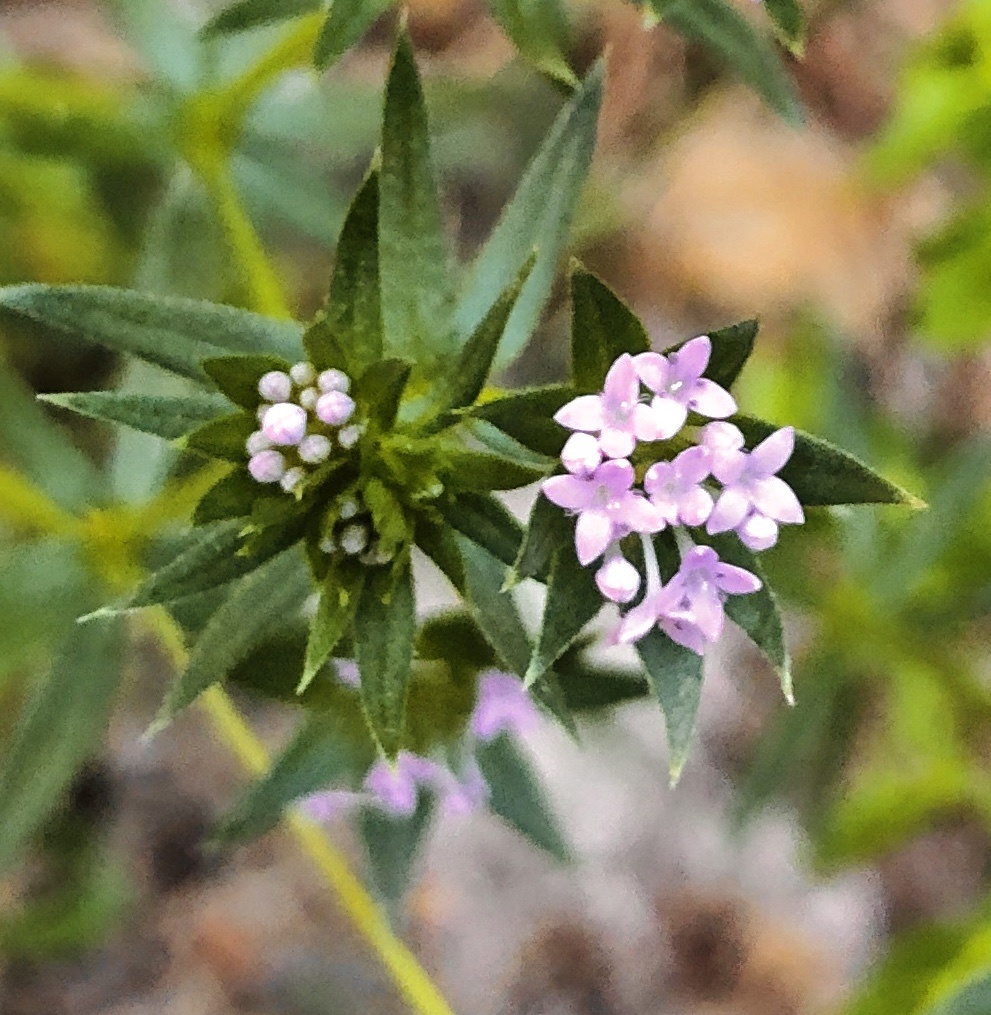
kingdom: Plantae
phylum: Tracheophyta
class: Magnoliopsida
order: Gentianales
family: Rubiaceae
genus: Sherardia
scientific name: Sherardia arvensis
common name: Field madder
